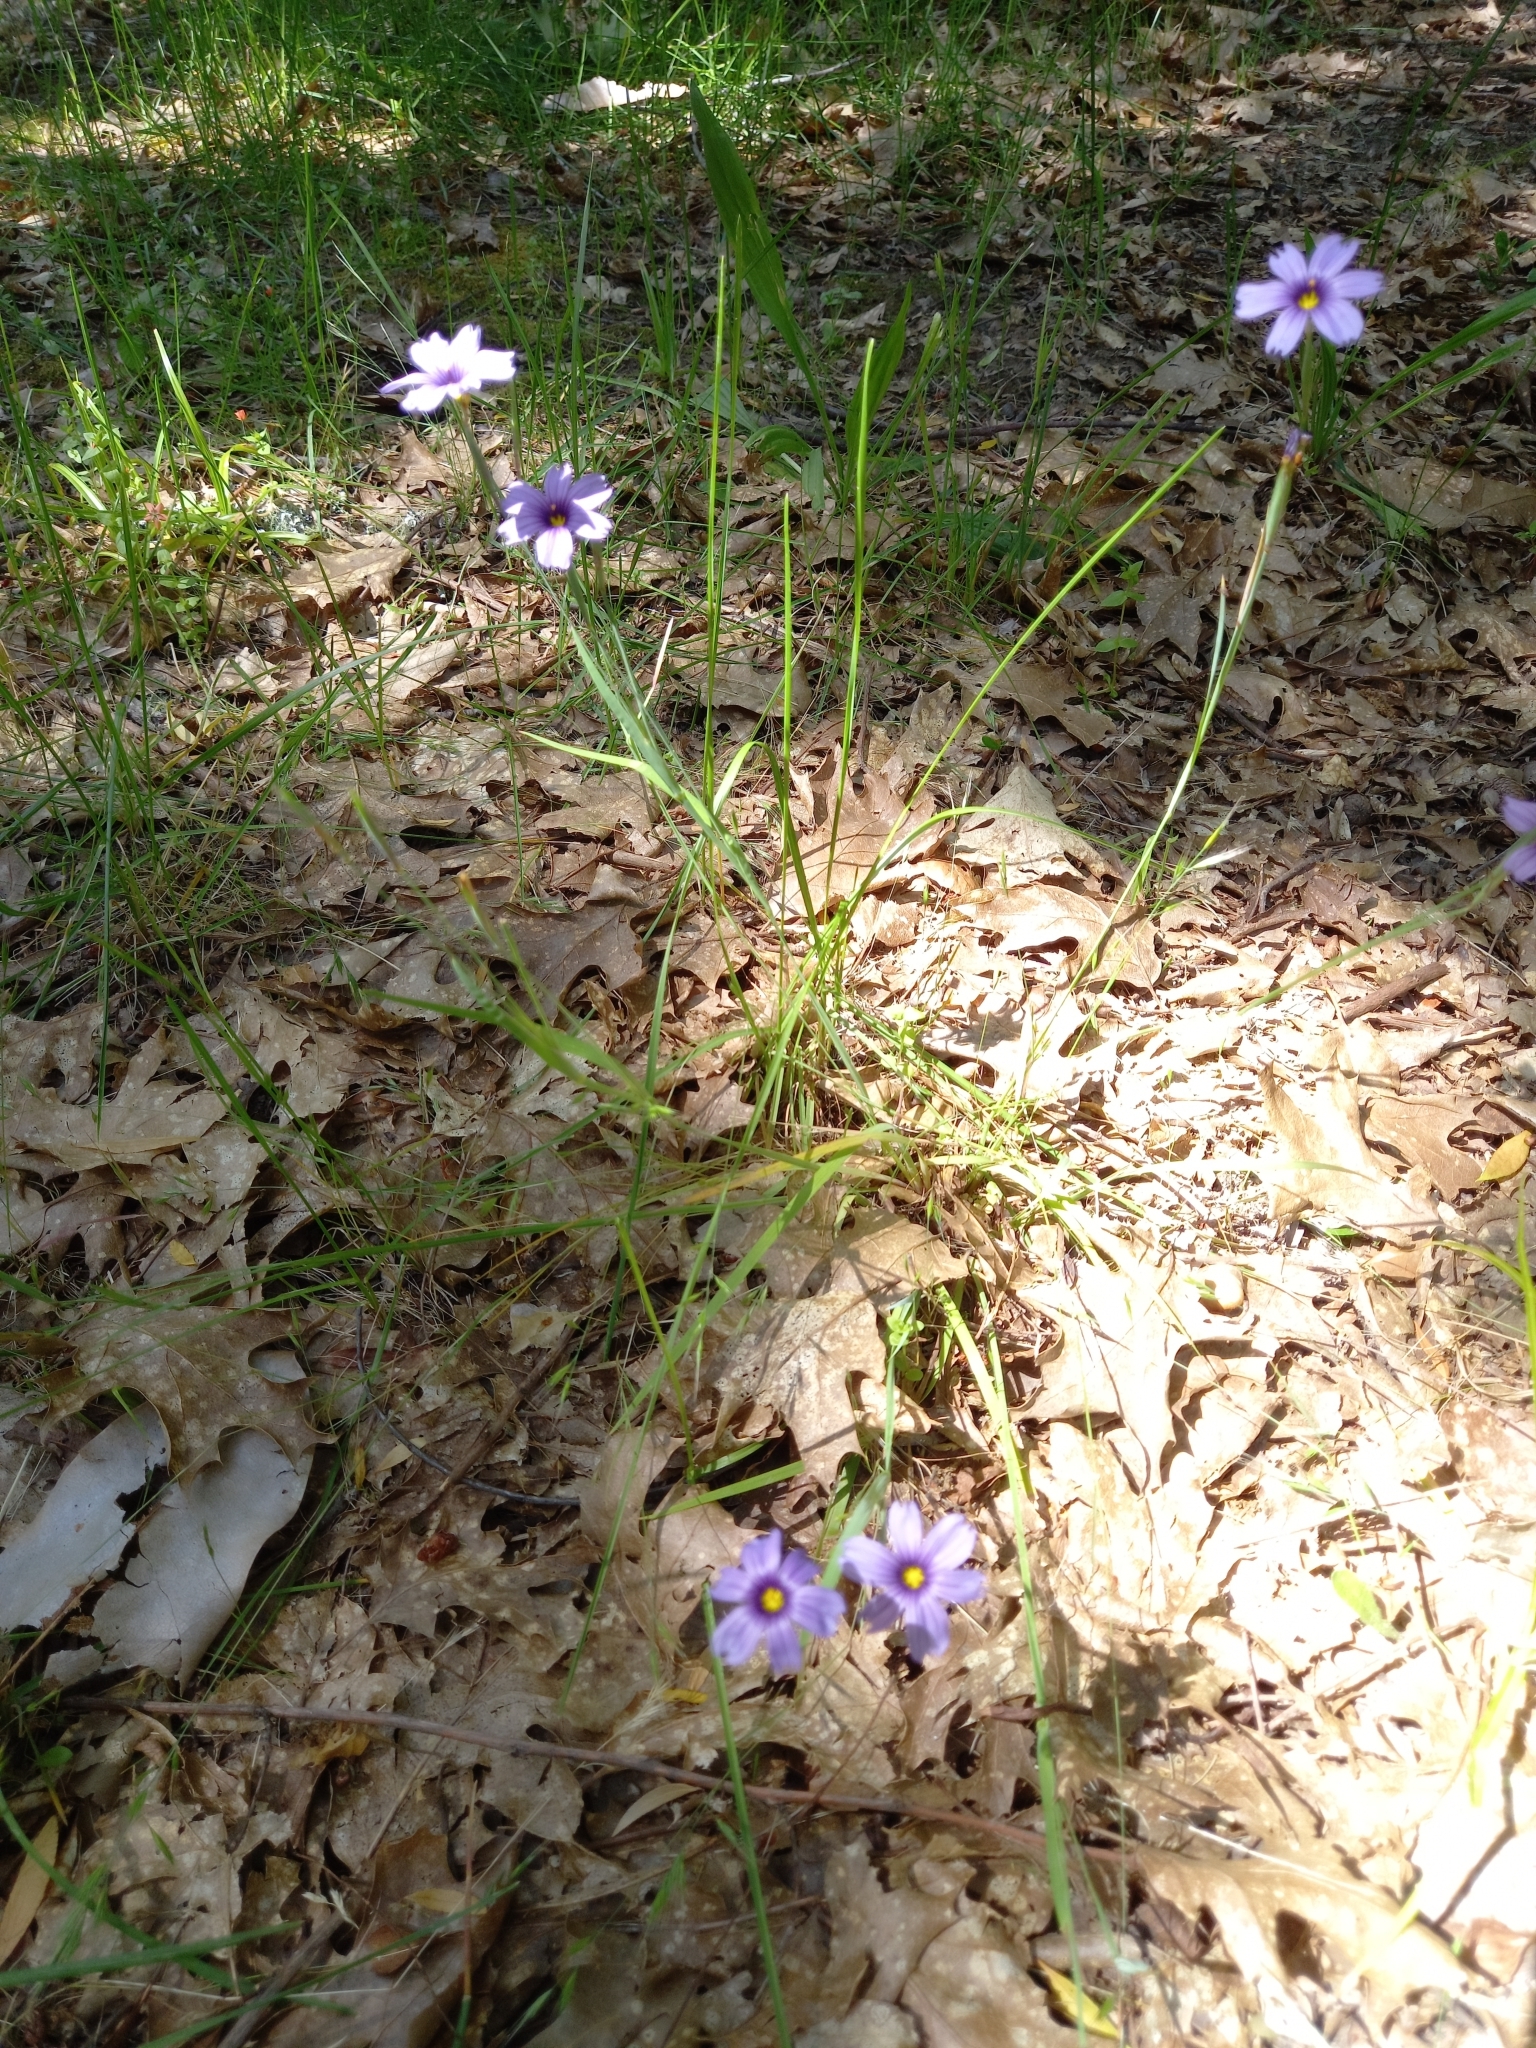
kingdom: Plantae
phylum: Tracheophyta
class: Liliopsida
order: Asparagales
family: Iridaceae
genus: Sisyrinchium
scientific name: Sisyrinchium bellum
